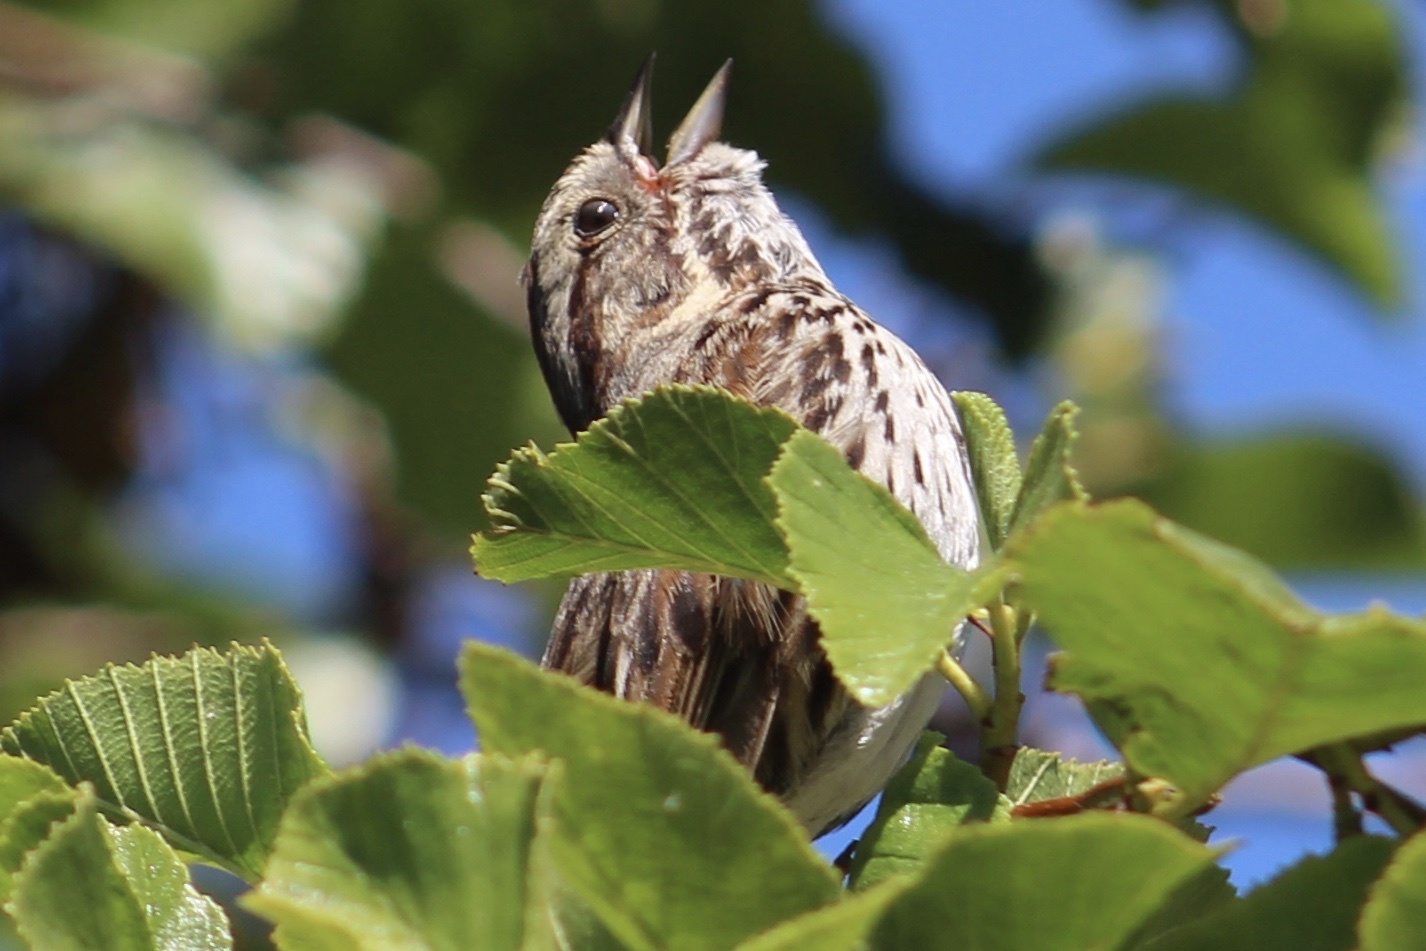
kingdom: Animalia
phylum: Chordata
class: Aves
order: Passeriformes
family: Passerellidae
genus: Melospiza
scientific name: Melospiza melodia
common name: Song sparrow
